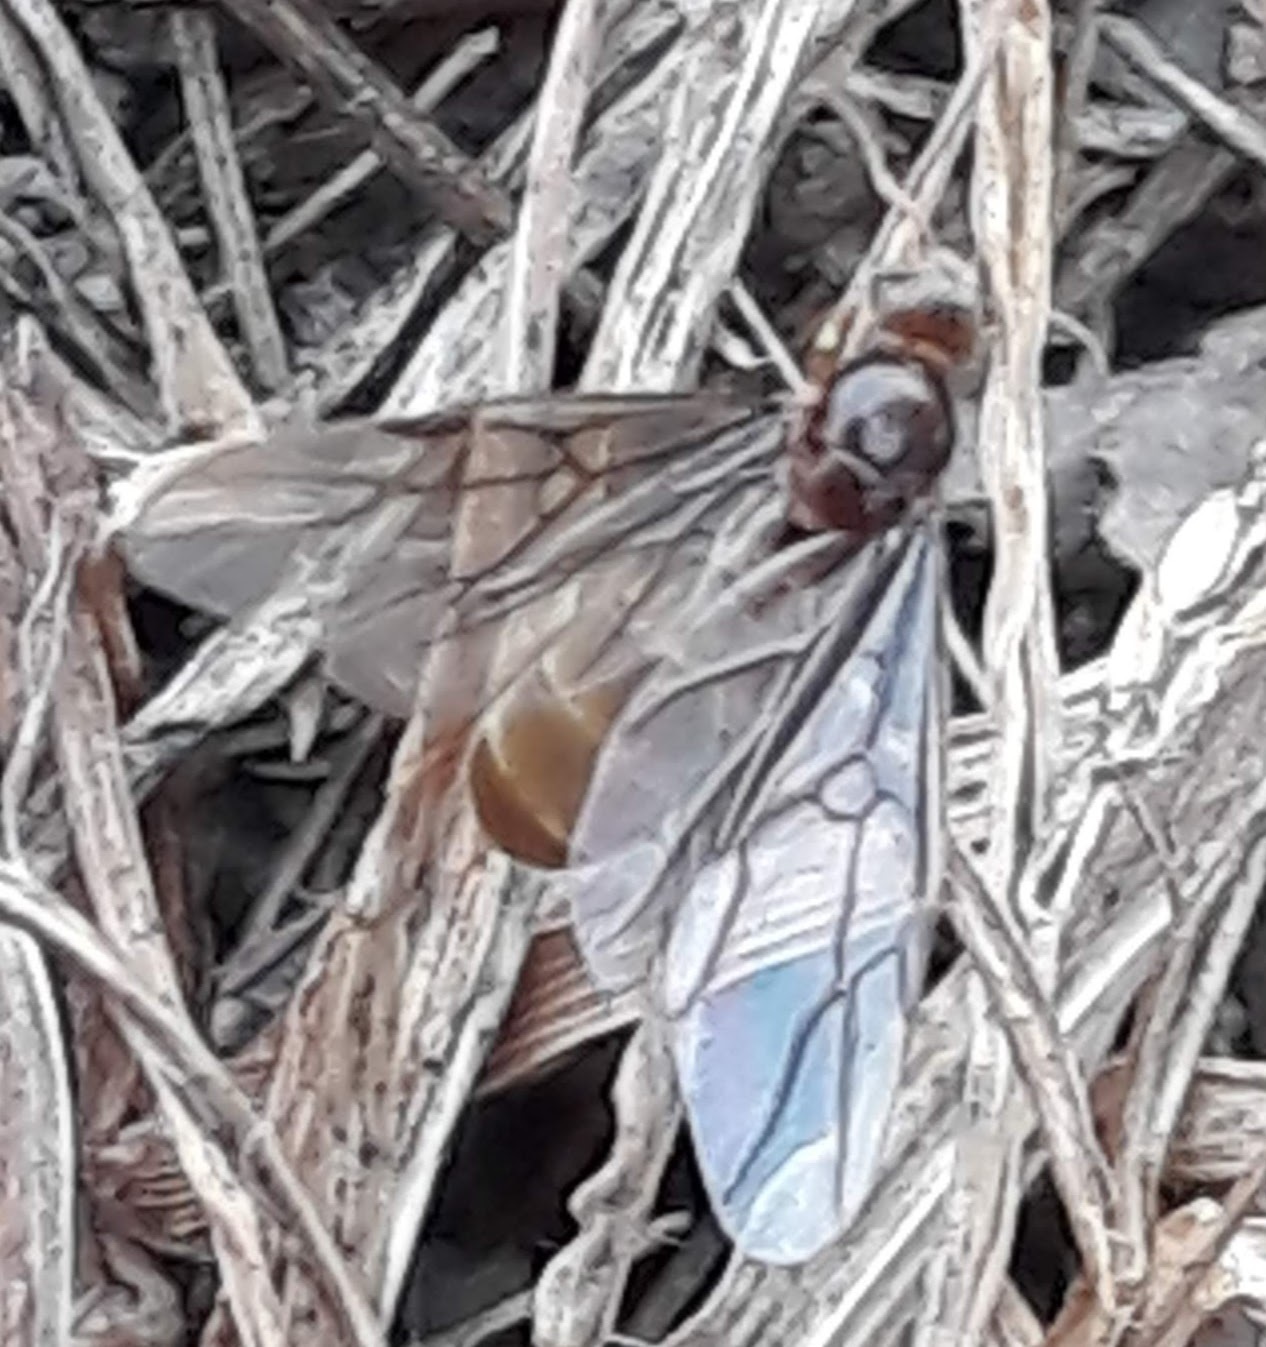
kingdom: Animalia
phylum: Arthropoda
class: Insecta
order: Hymenoptera
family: Formicidae
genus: Lasius
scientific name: Lasius neoniger
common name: Turfgrass ant
